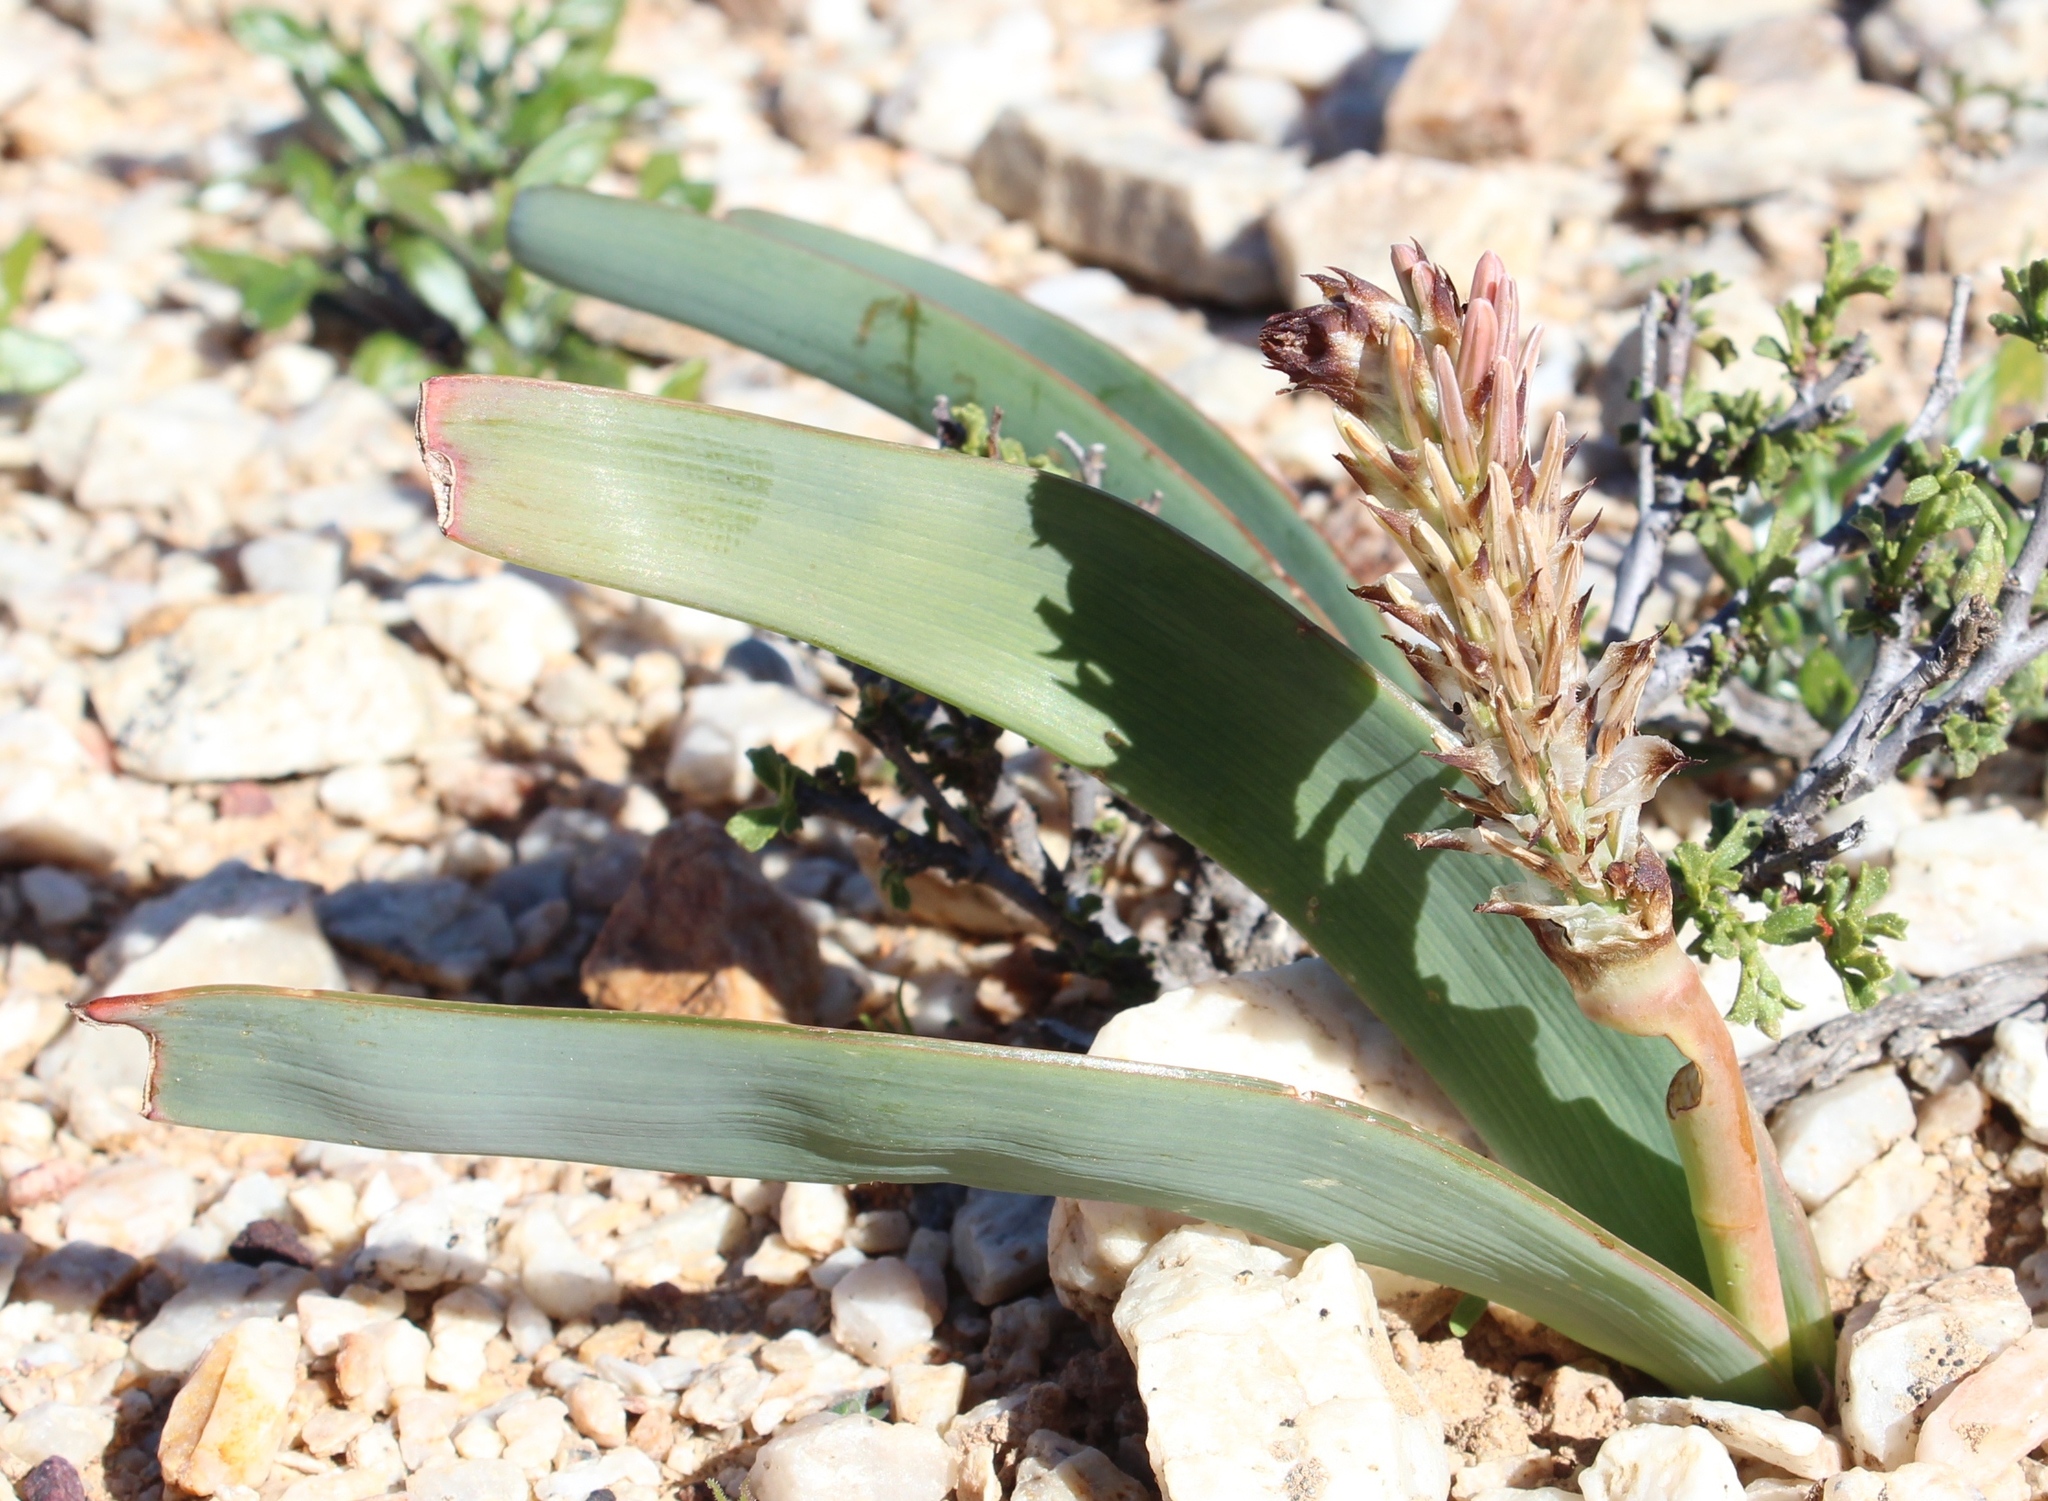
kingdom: Plantae
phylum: Tracheophyta
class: Liliopsida
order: Asparagales
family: Asphodelaceae
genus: Trachyandra
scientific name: Trachyandra falcata
